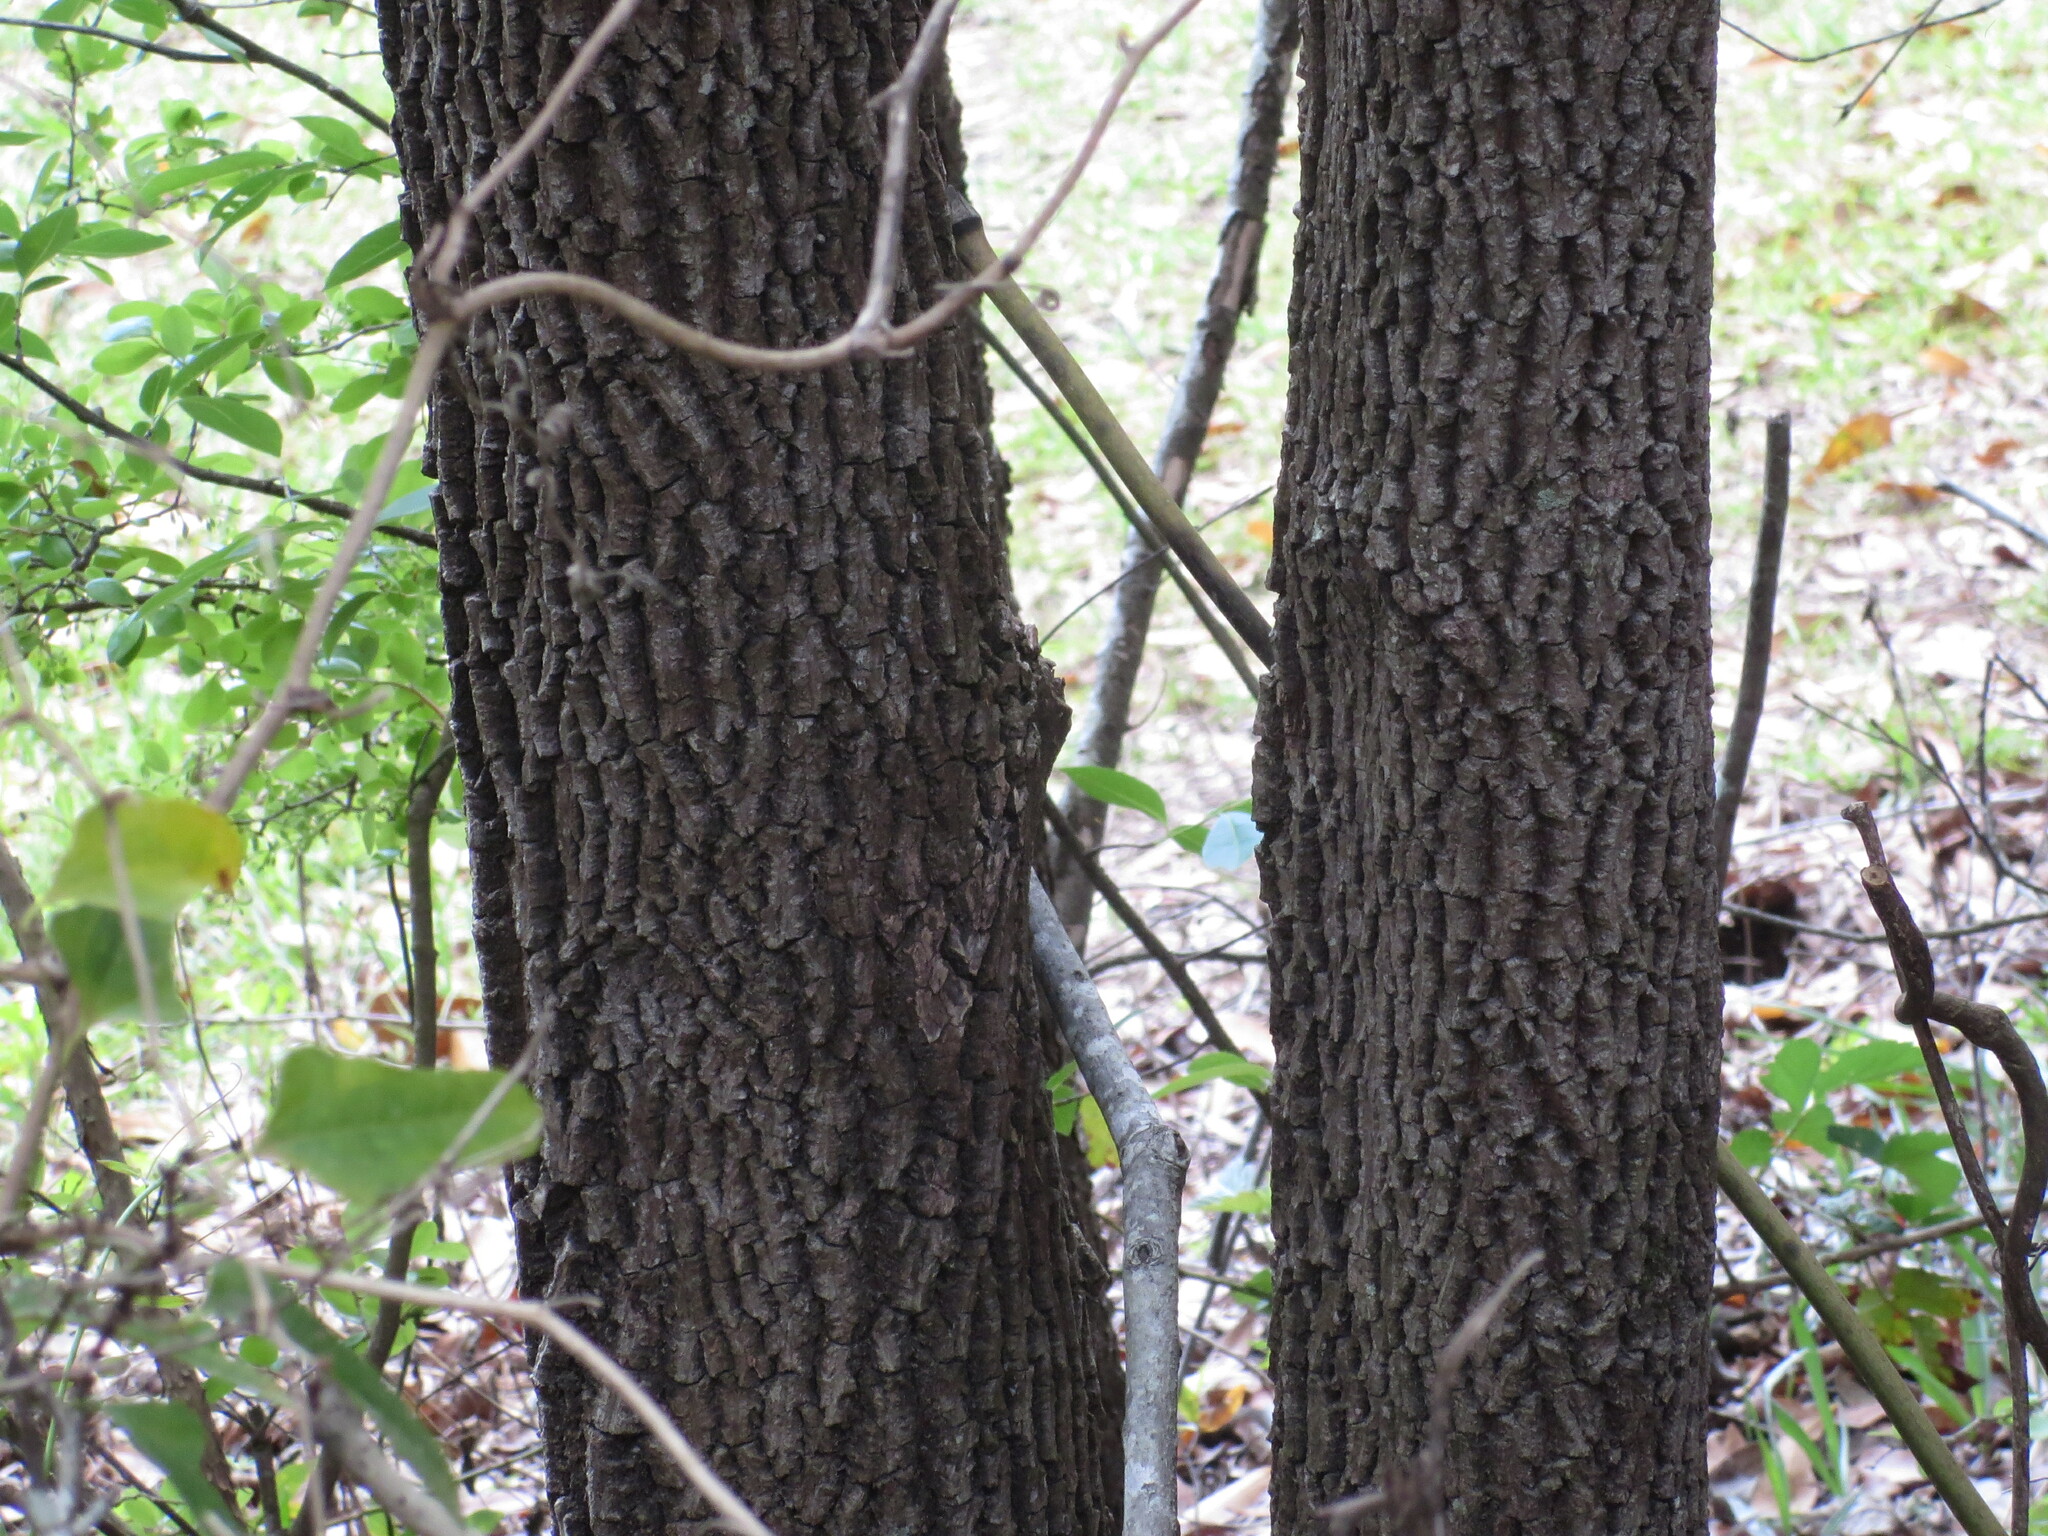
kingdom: Plantae
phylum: Tracheophyta
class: Magnoliopsida
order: Ericales
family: Ebenaceae
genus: Diospyros
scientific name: Diospyros virginiana
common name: Persimmon
